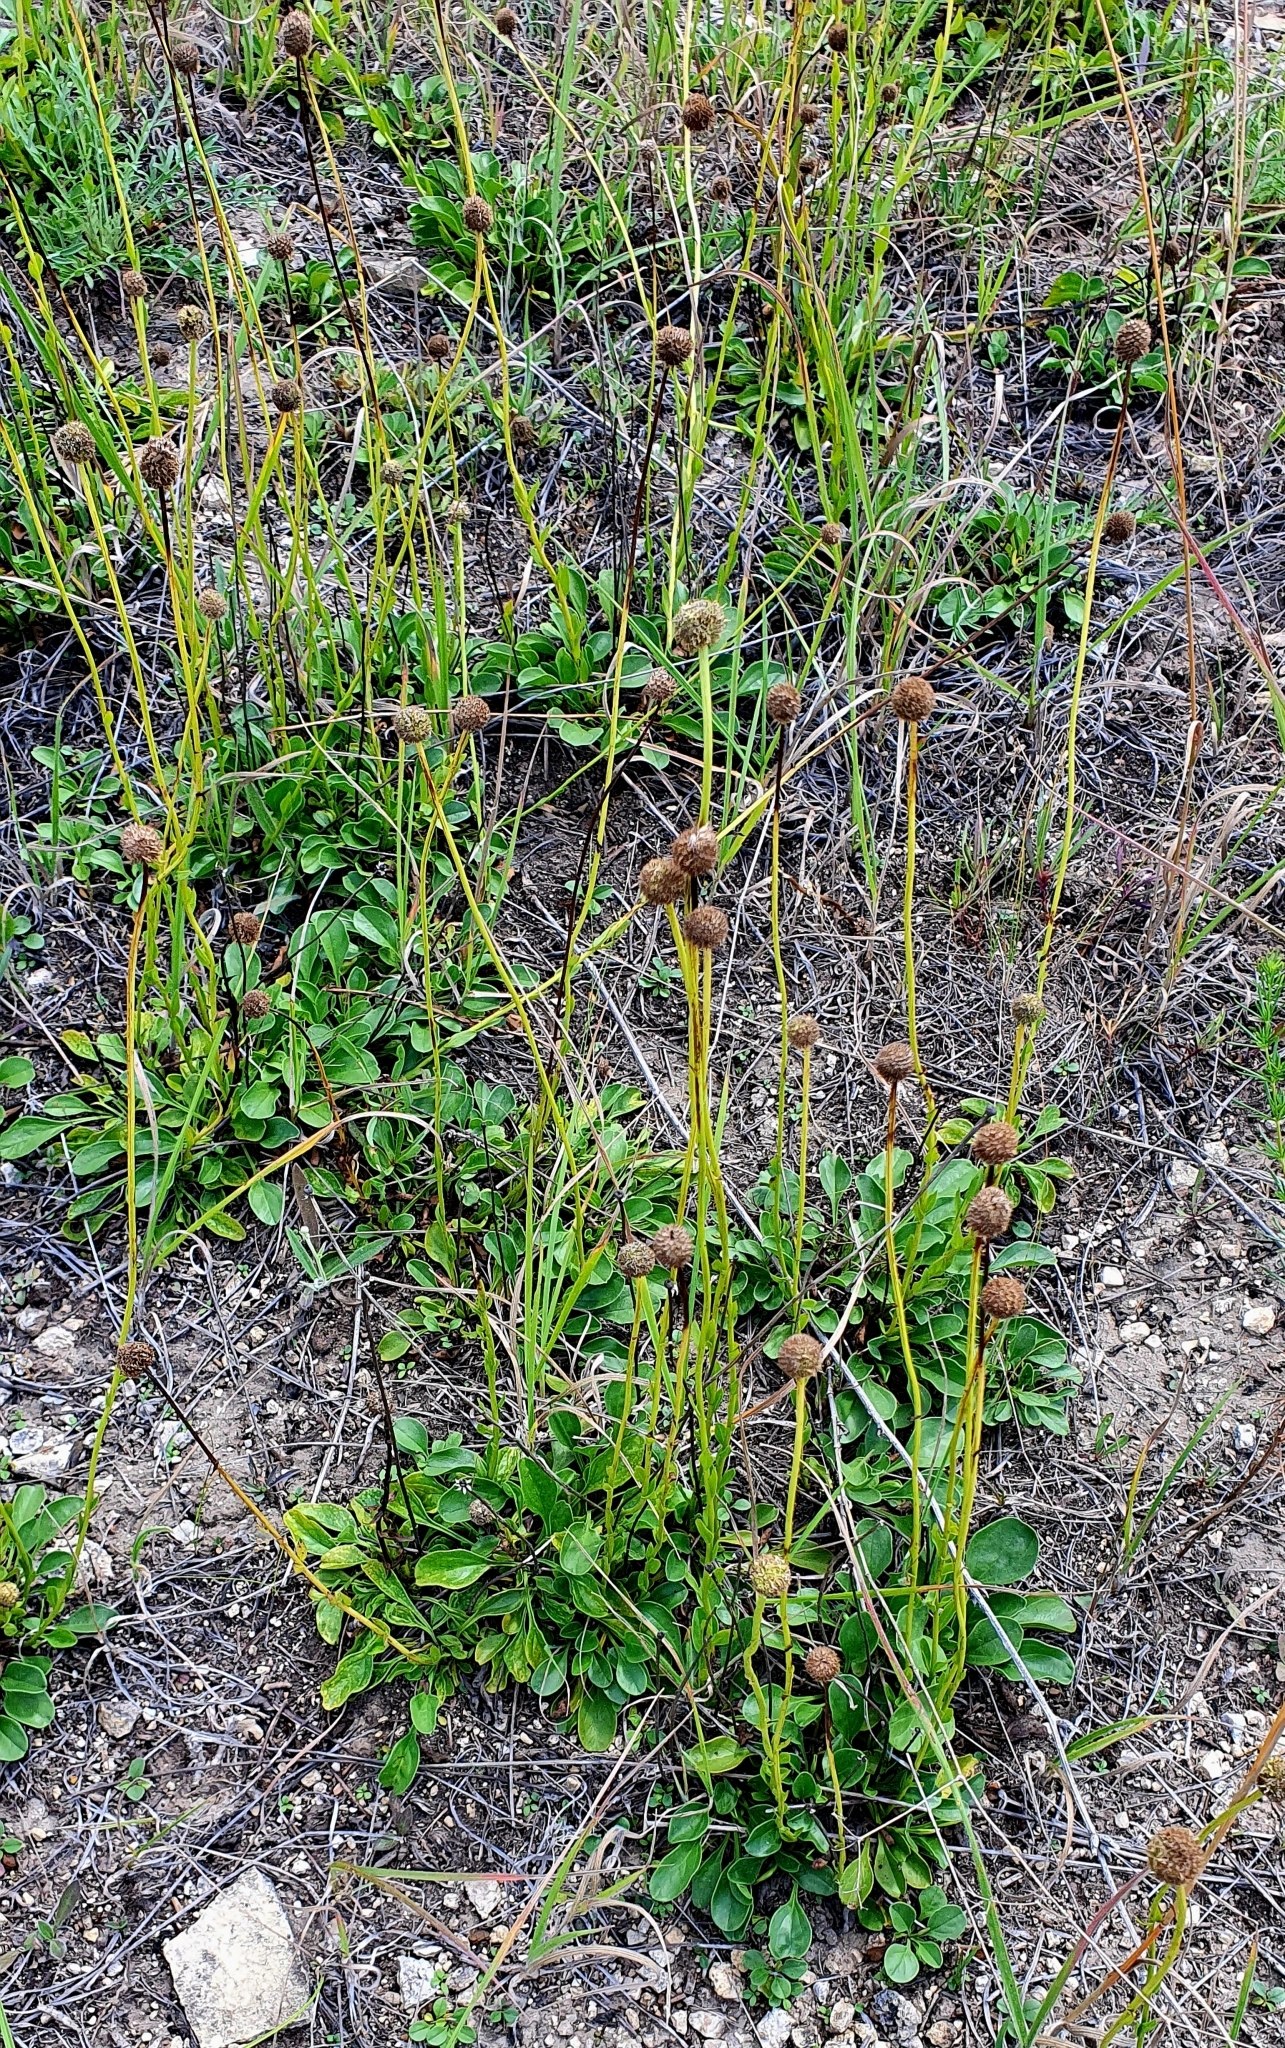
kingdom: Plantae
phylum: Tracheophyta
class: Magnoliopsida
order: Lamiales
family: Plantaginaceae
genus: Globularia
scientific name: Globularia bisnagarica
